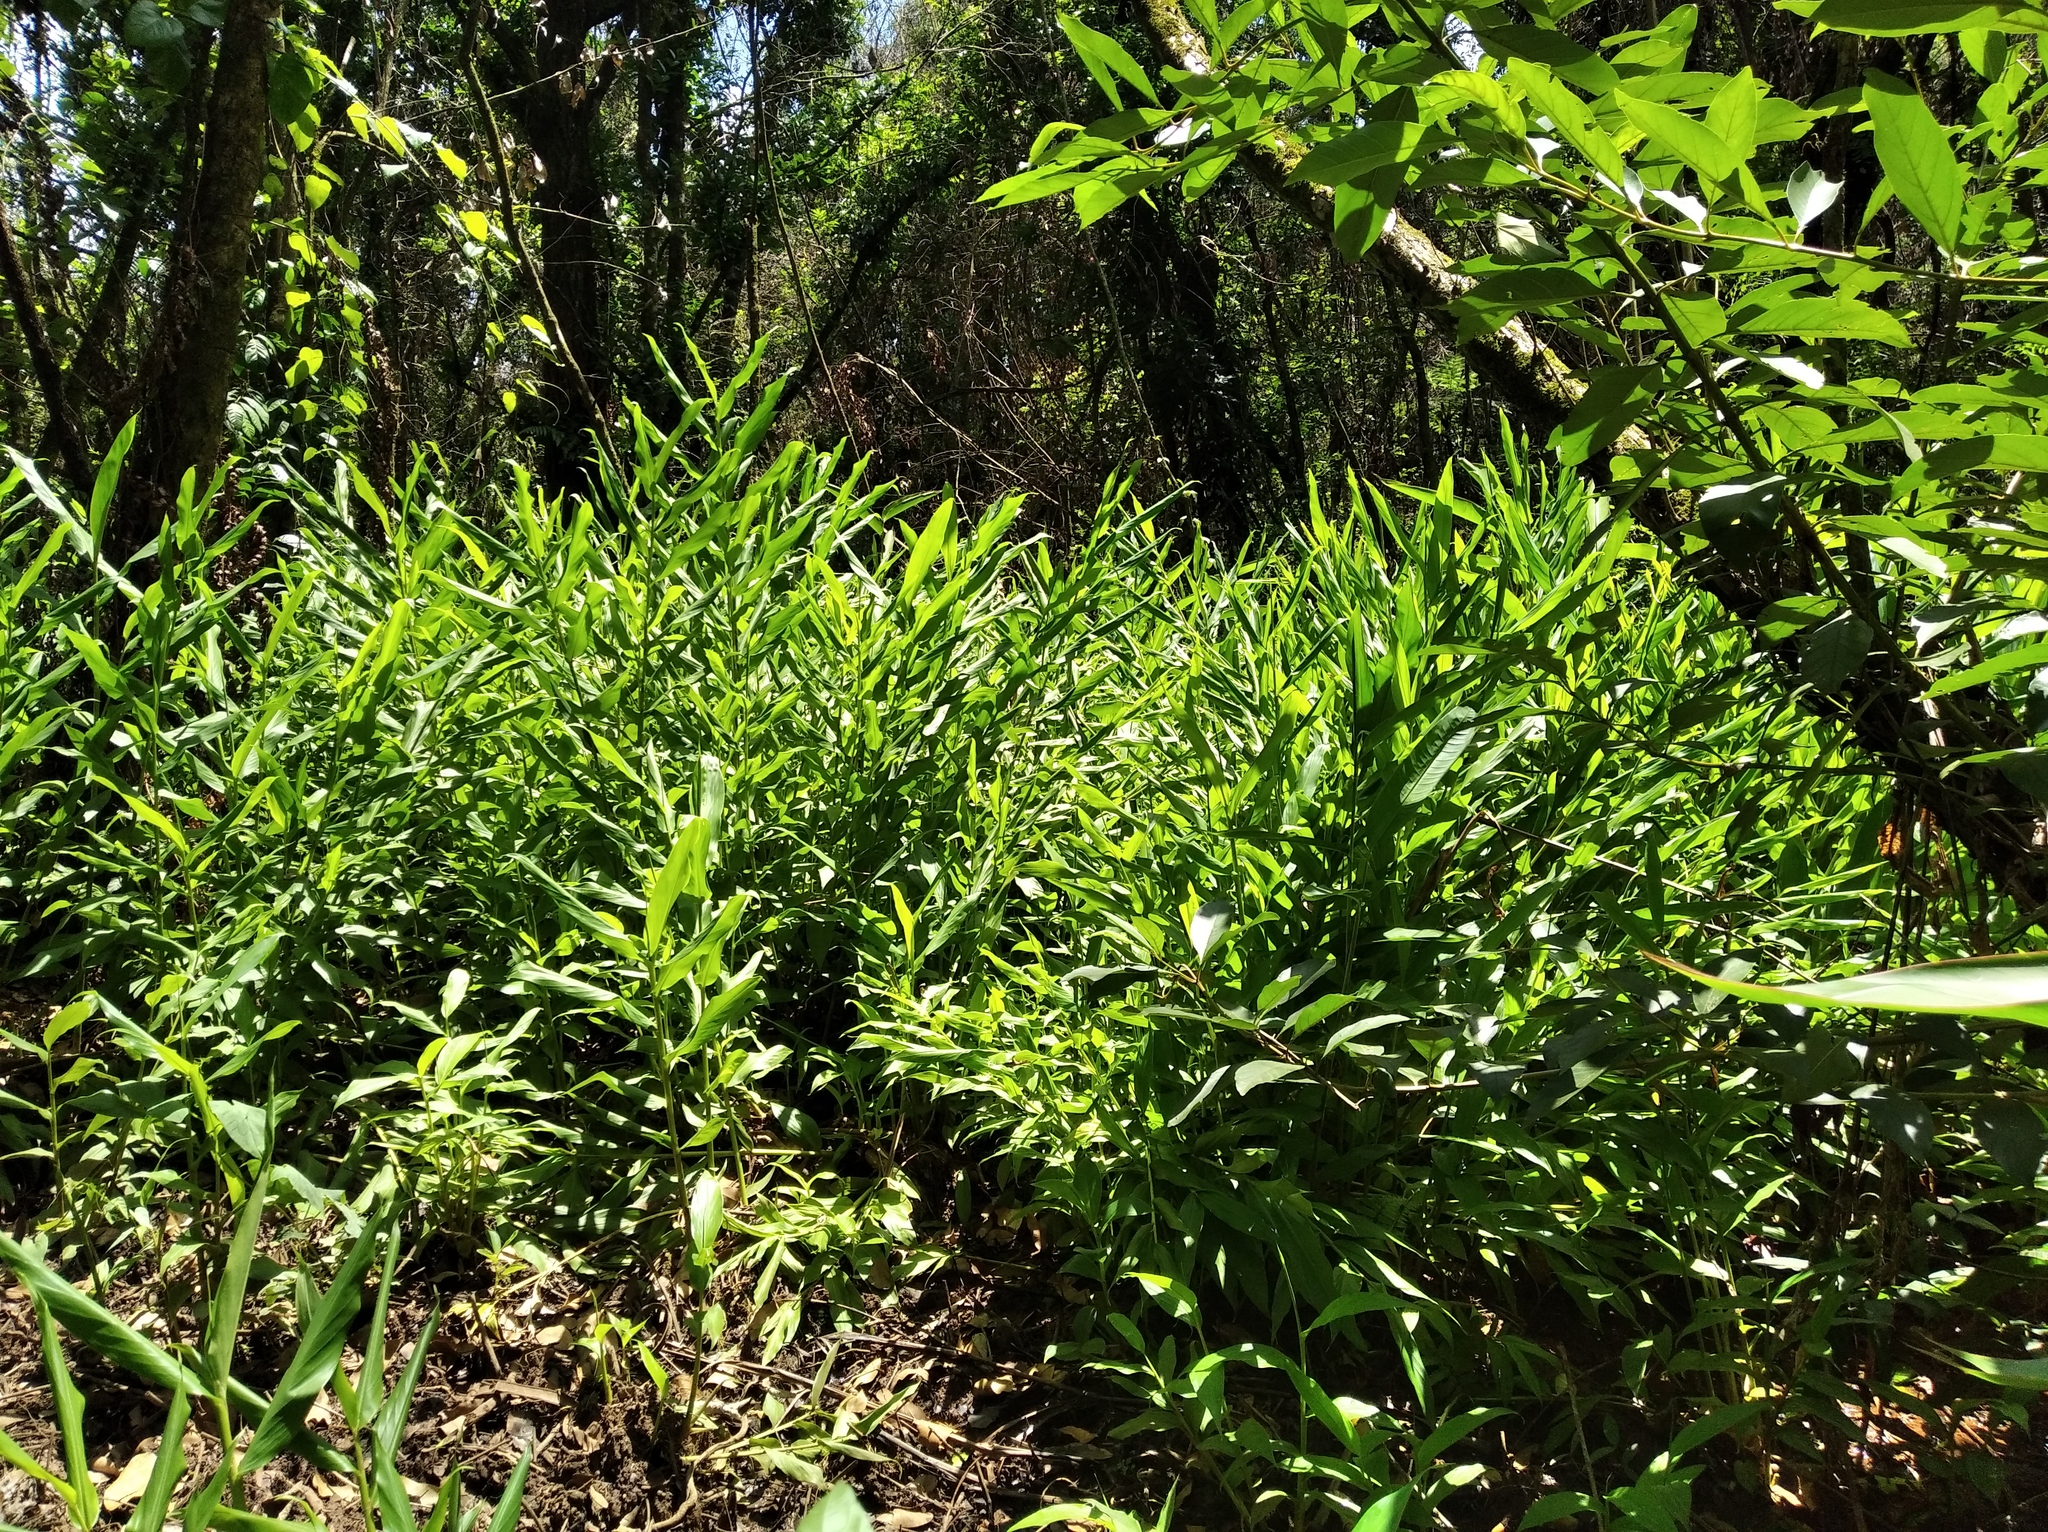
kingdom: Plantae
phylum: Tracheophyta
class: Liliopsida
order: Zingiberales
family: Zingiberaceae
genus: Hedychium
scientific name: Hedychium coronarium
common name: White garland-lily
